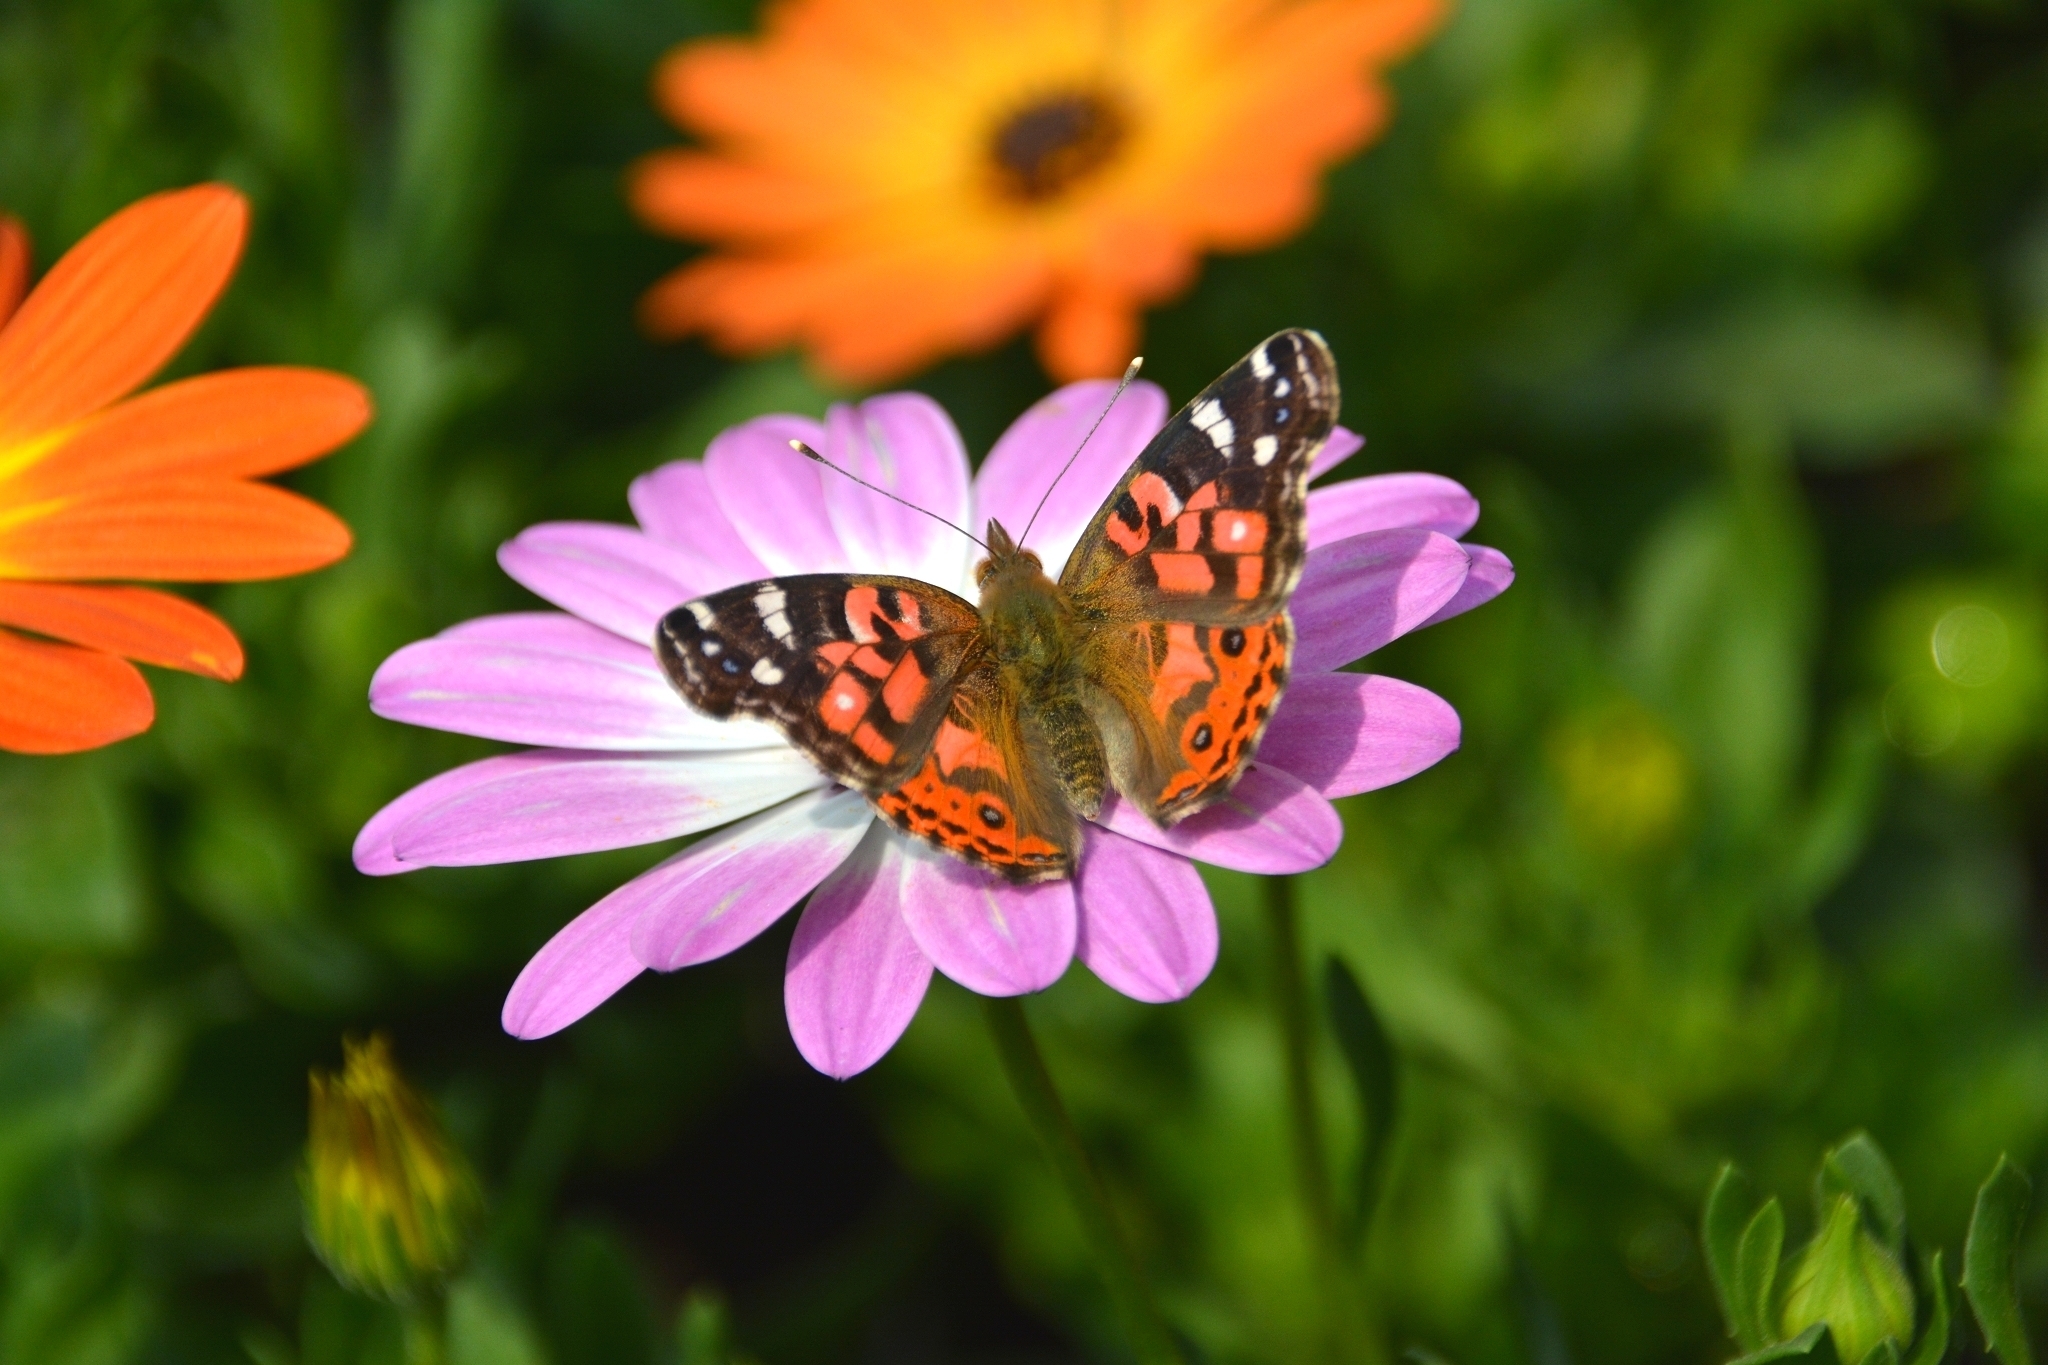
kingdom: Animalia
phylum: Arthropoda
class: Insecta
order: Lepidoptera
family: Nymphalidae
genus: Vanessa
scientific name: Vanessa braziliensis
